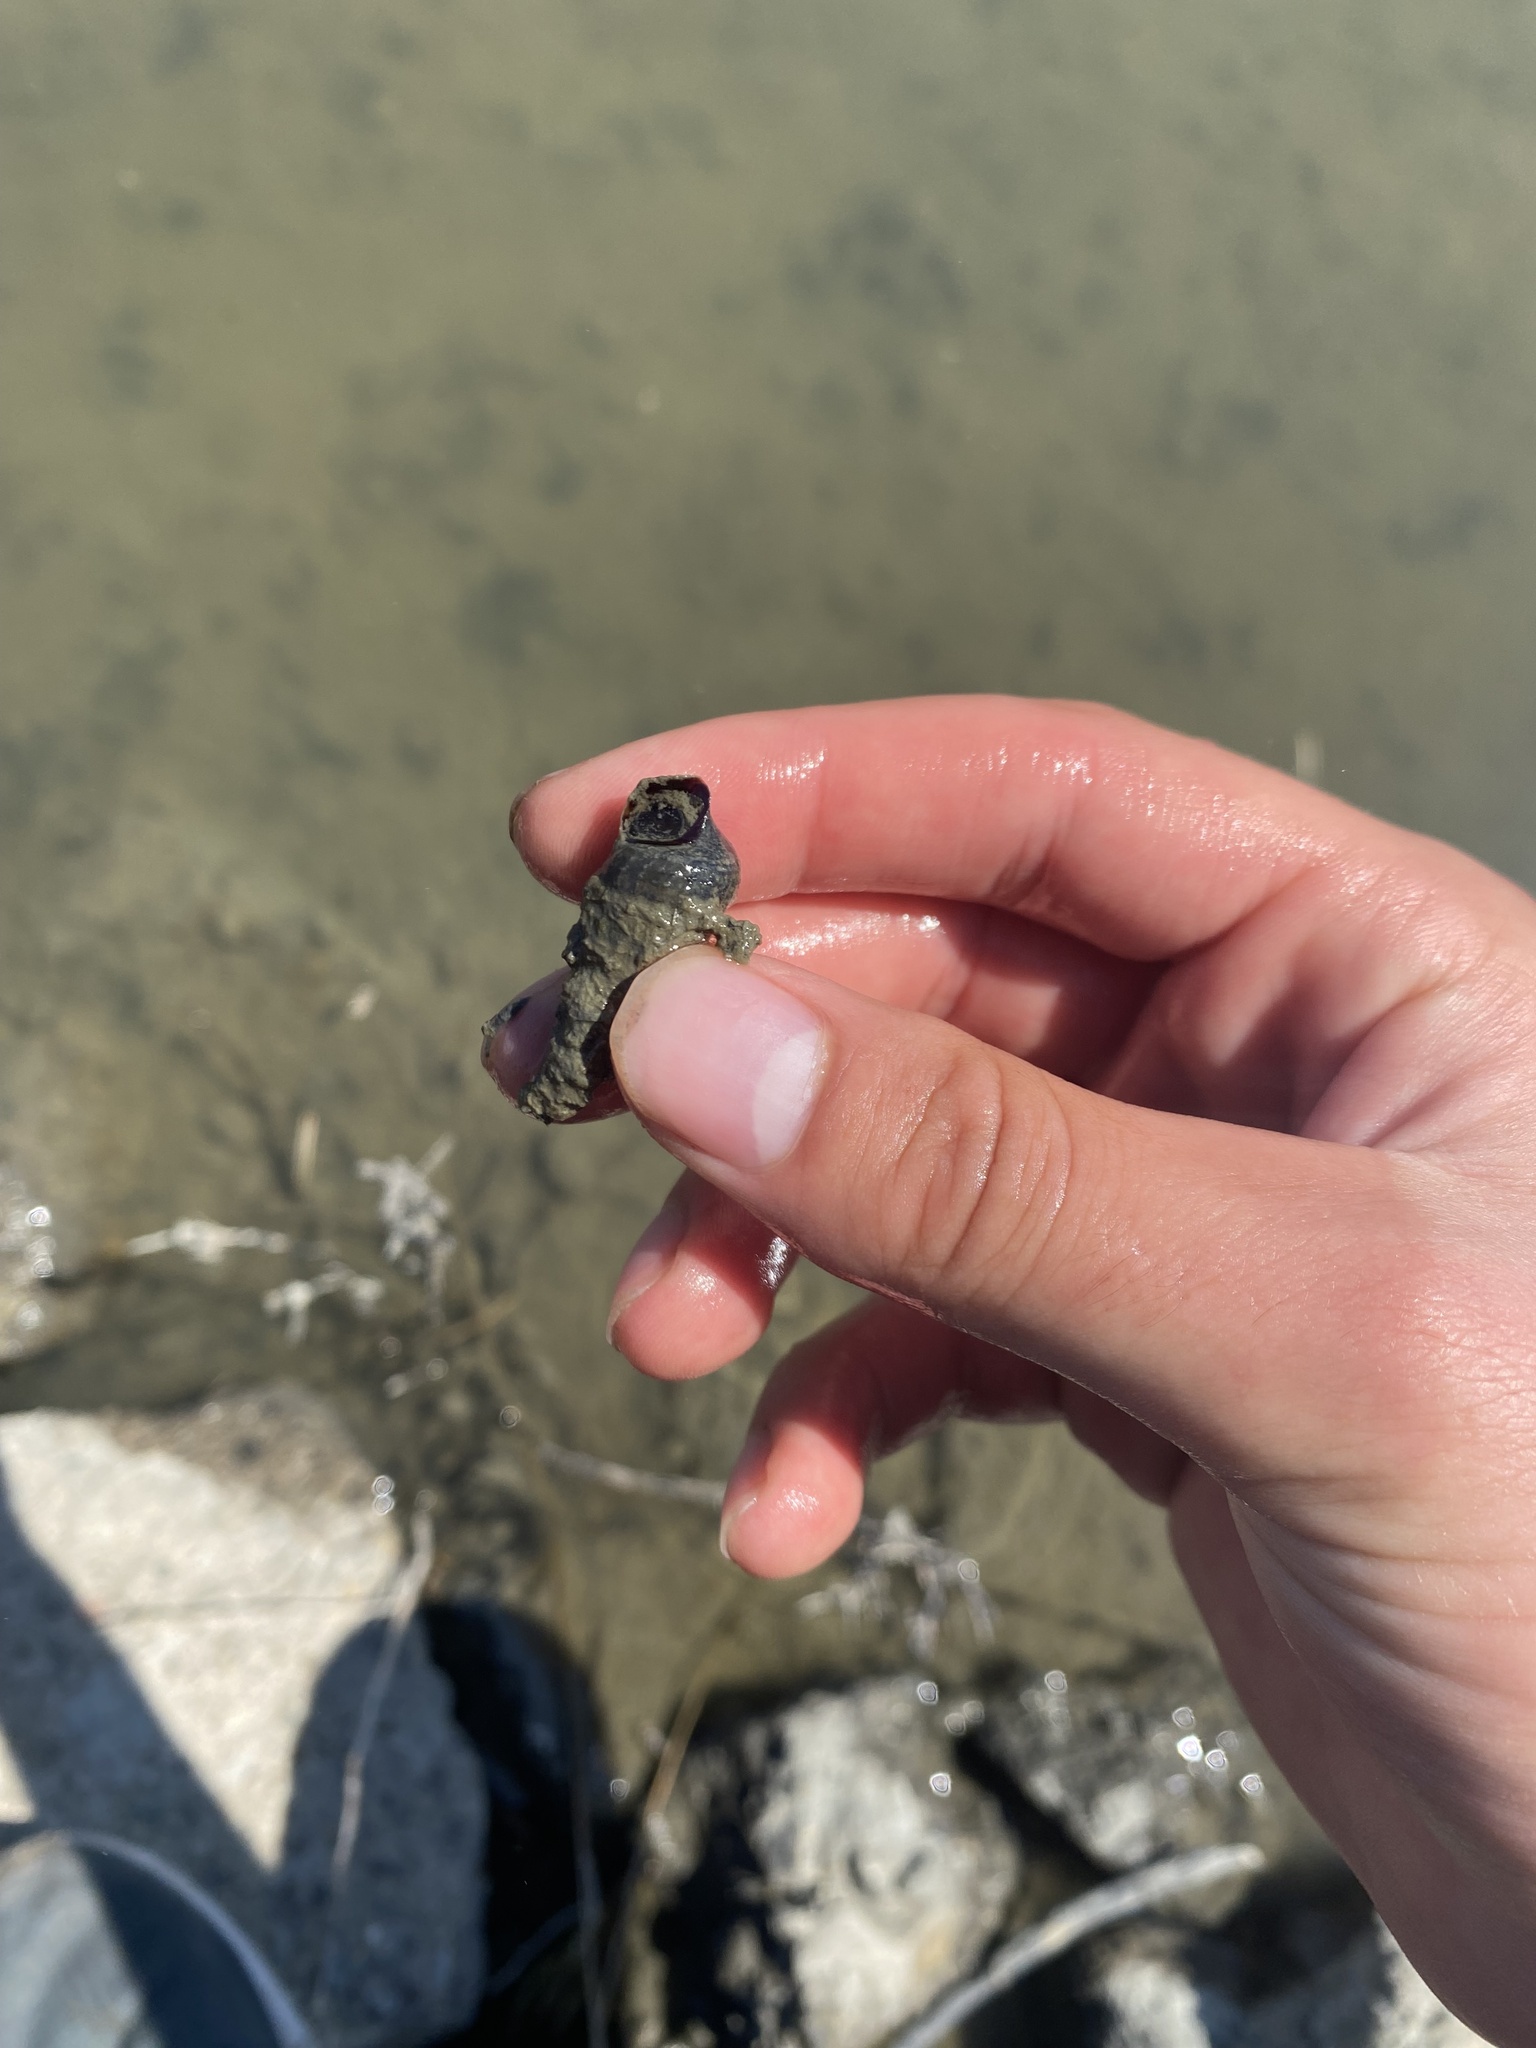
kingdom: Animalia
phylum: Mollusca
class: Gastropoda
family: Potamididae
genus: Cerithideopsis
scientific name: Cerithideopsis californica
